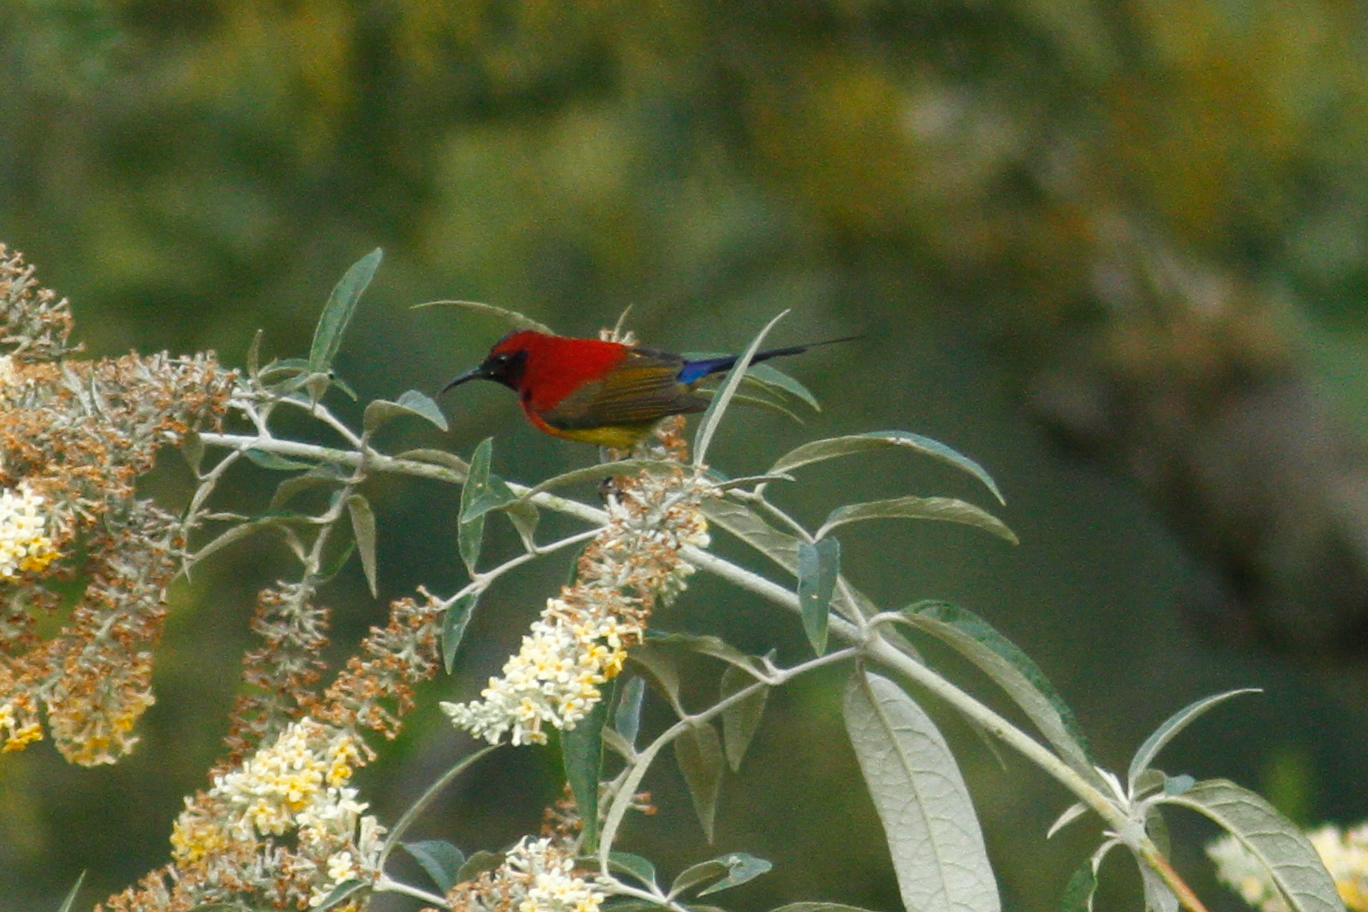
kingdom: Animalia
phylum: Chordata
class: Aves
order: Passeriformes
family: Nectariniidae
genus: Aethopyga
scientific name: Aethopyga gouldiae
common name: Mrs. gould's sunbird
